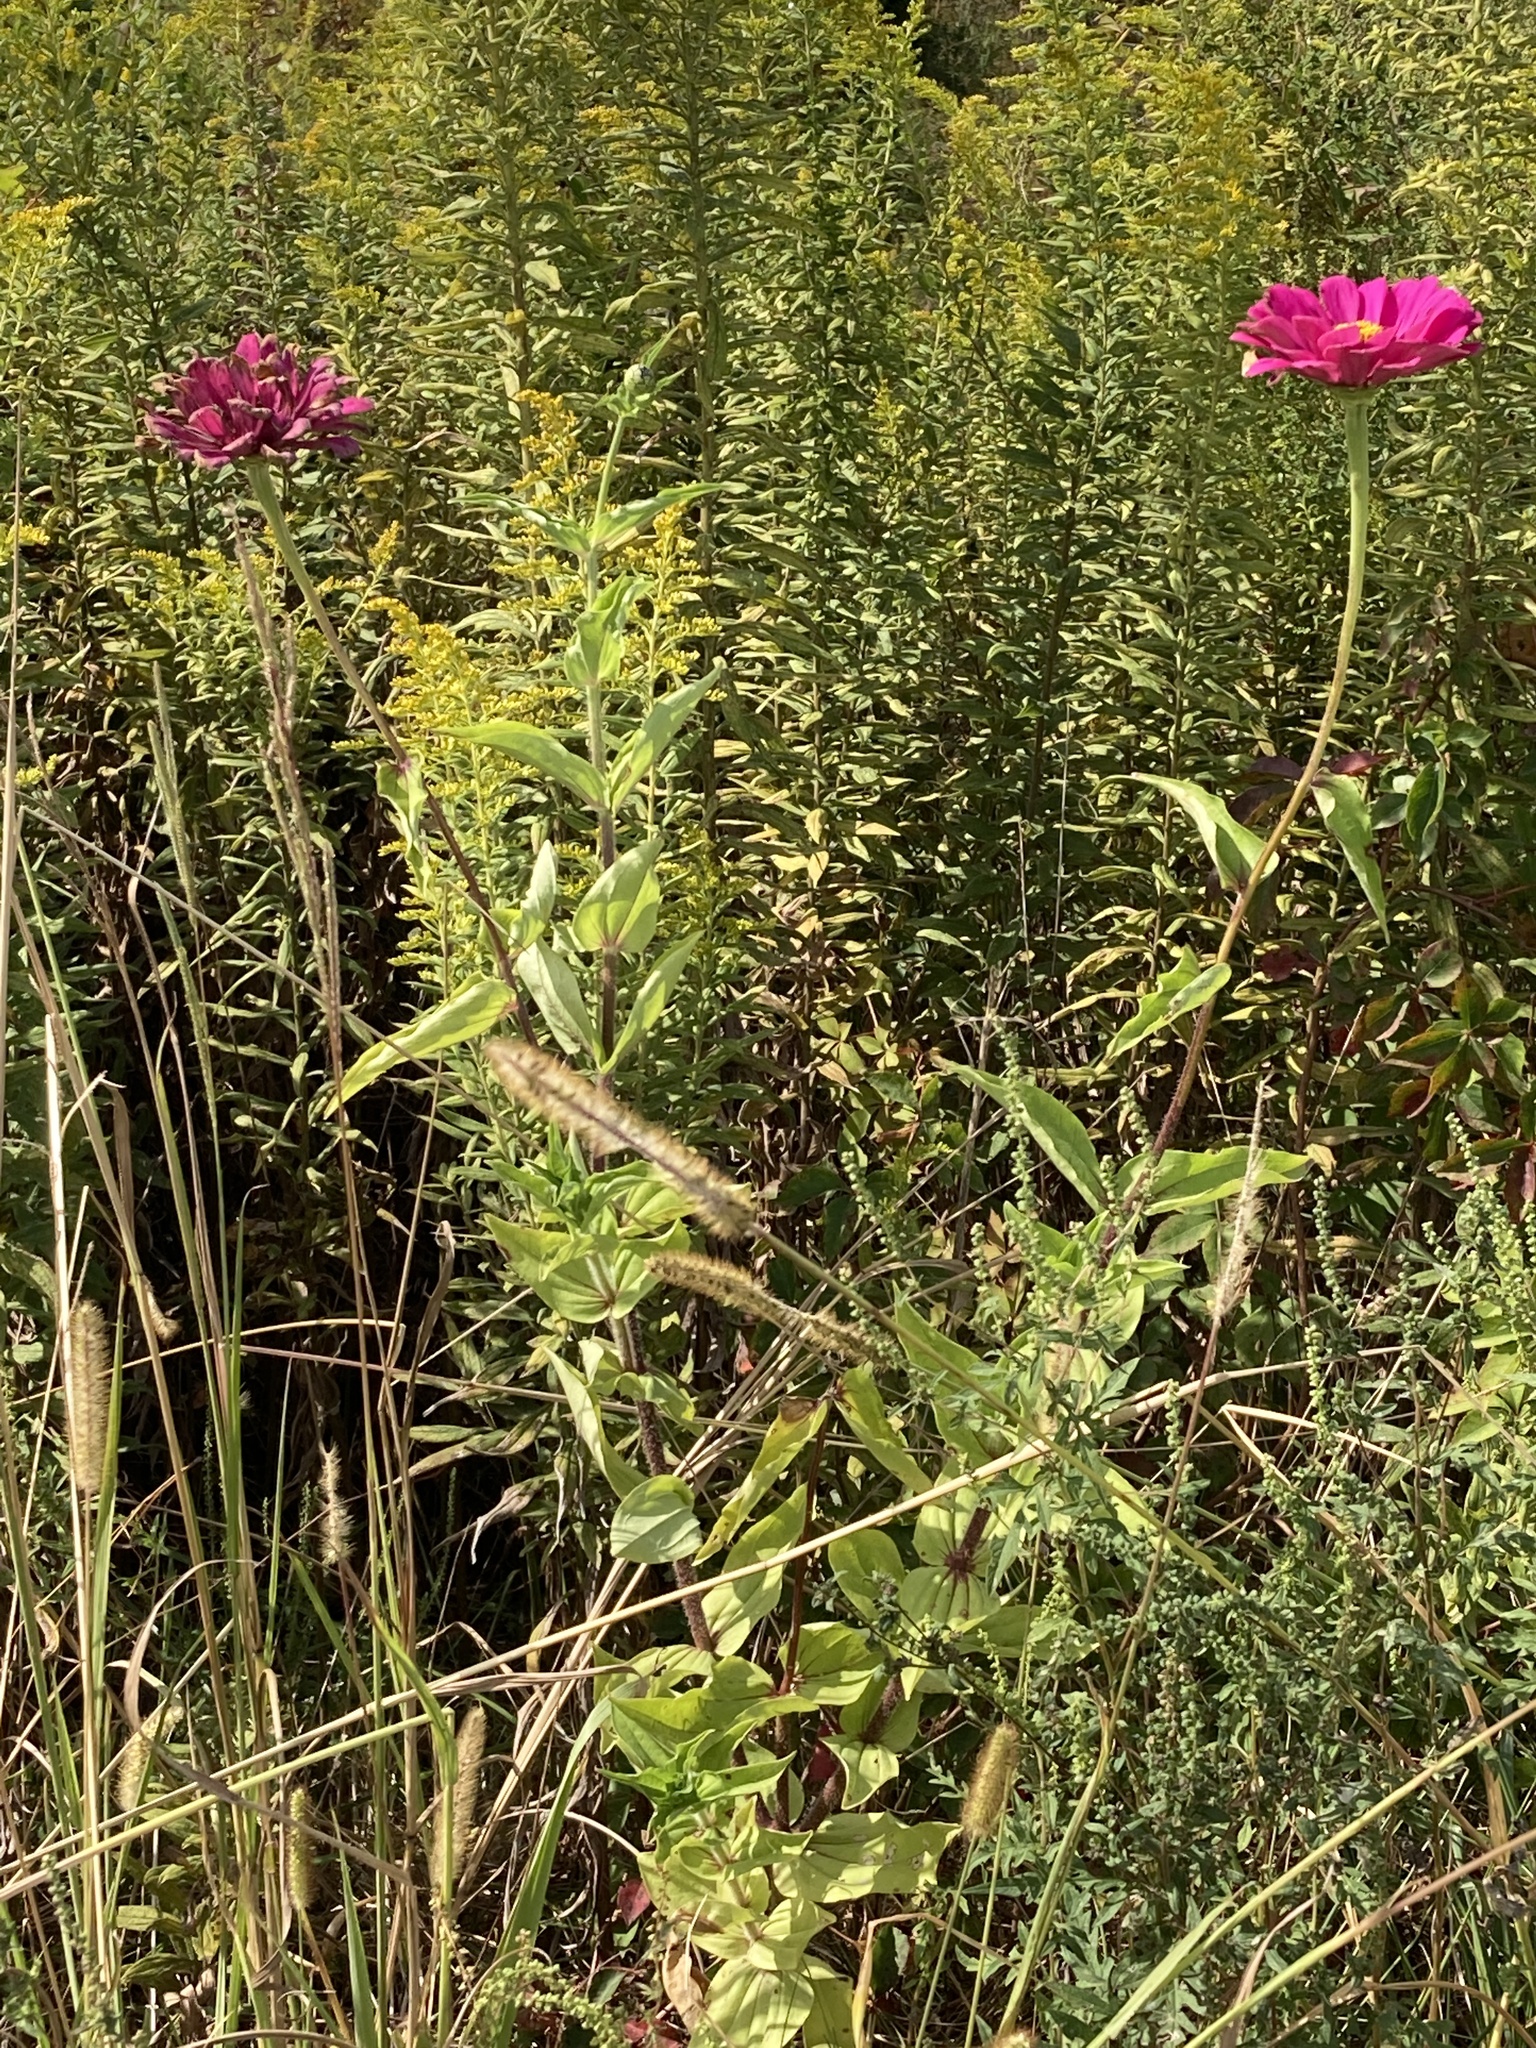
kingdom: Plantae
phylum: Tracheophyta
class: Magnoliopsida
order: Asterales
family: Asteraceae
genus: Zinnia
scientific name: Zinnia elegans
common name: Youth-and-age
